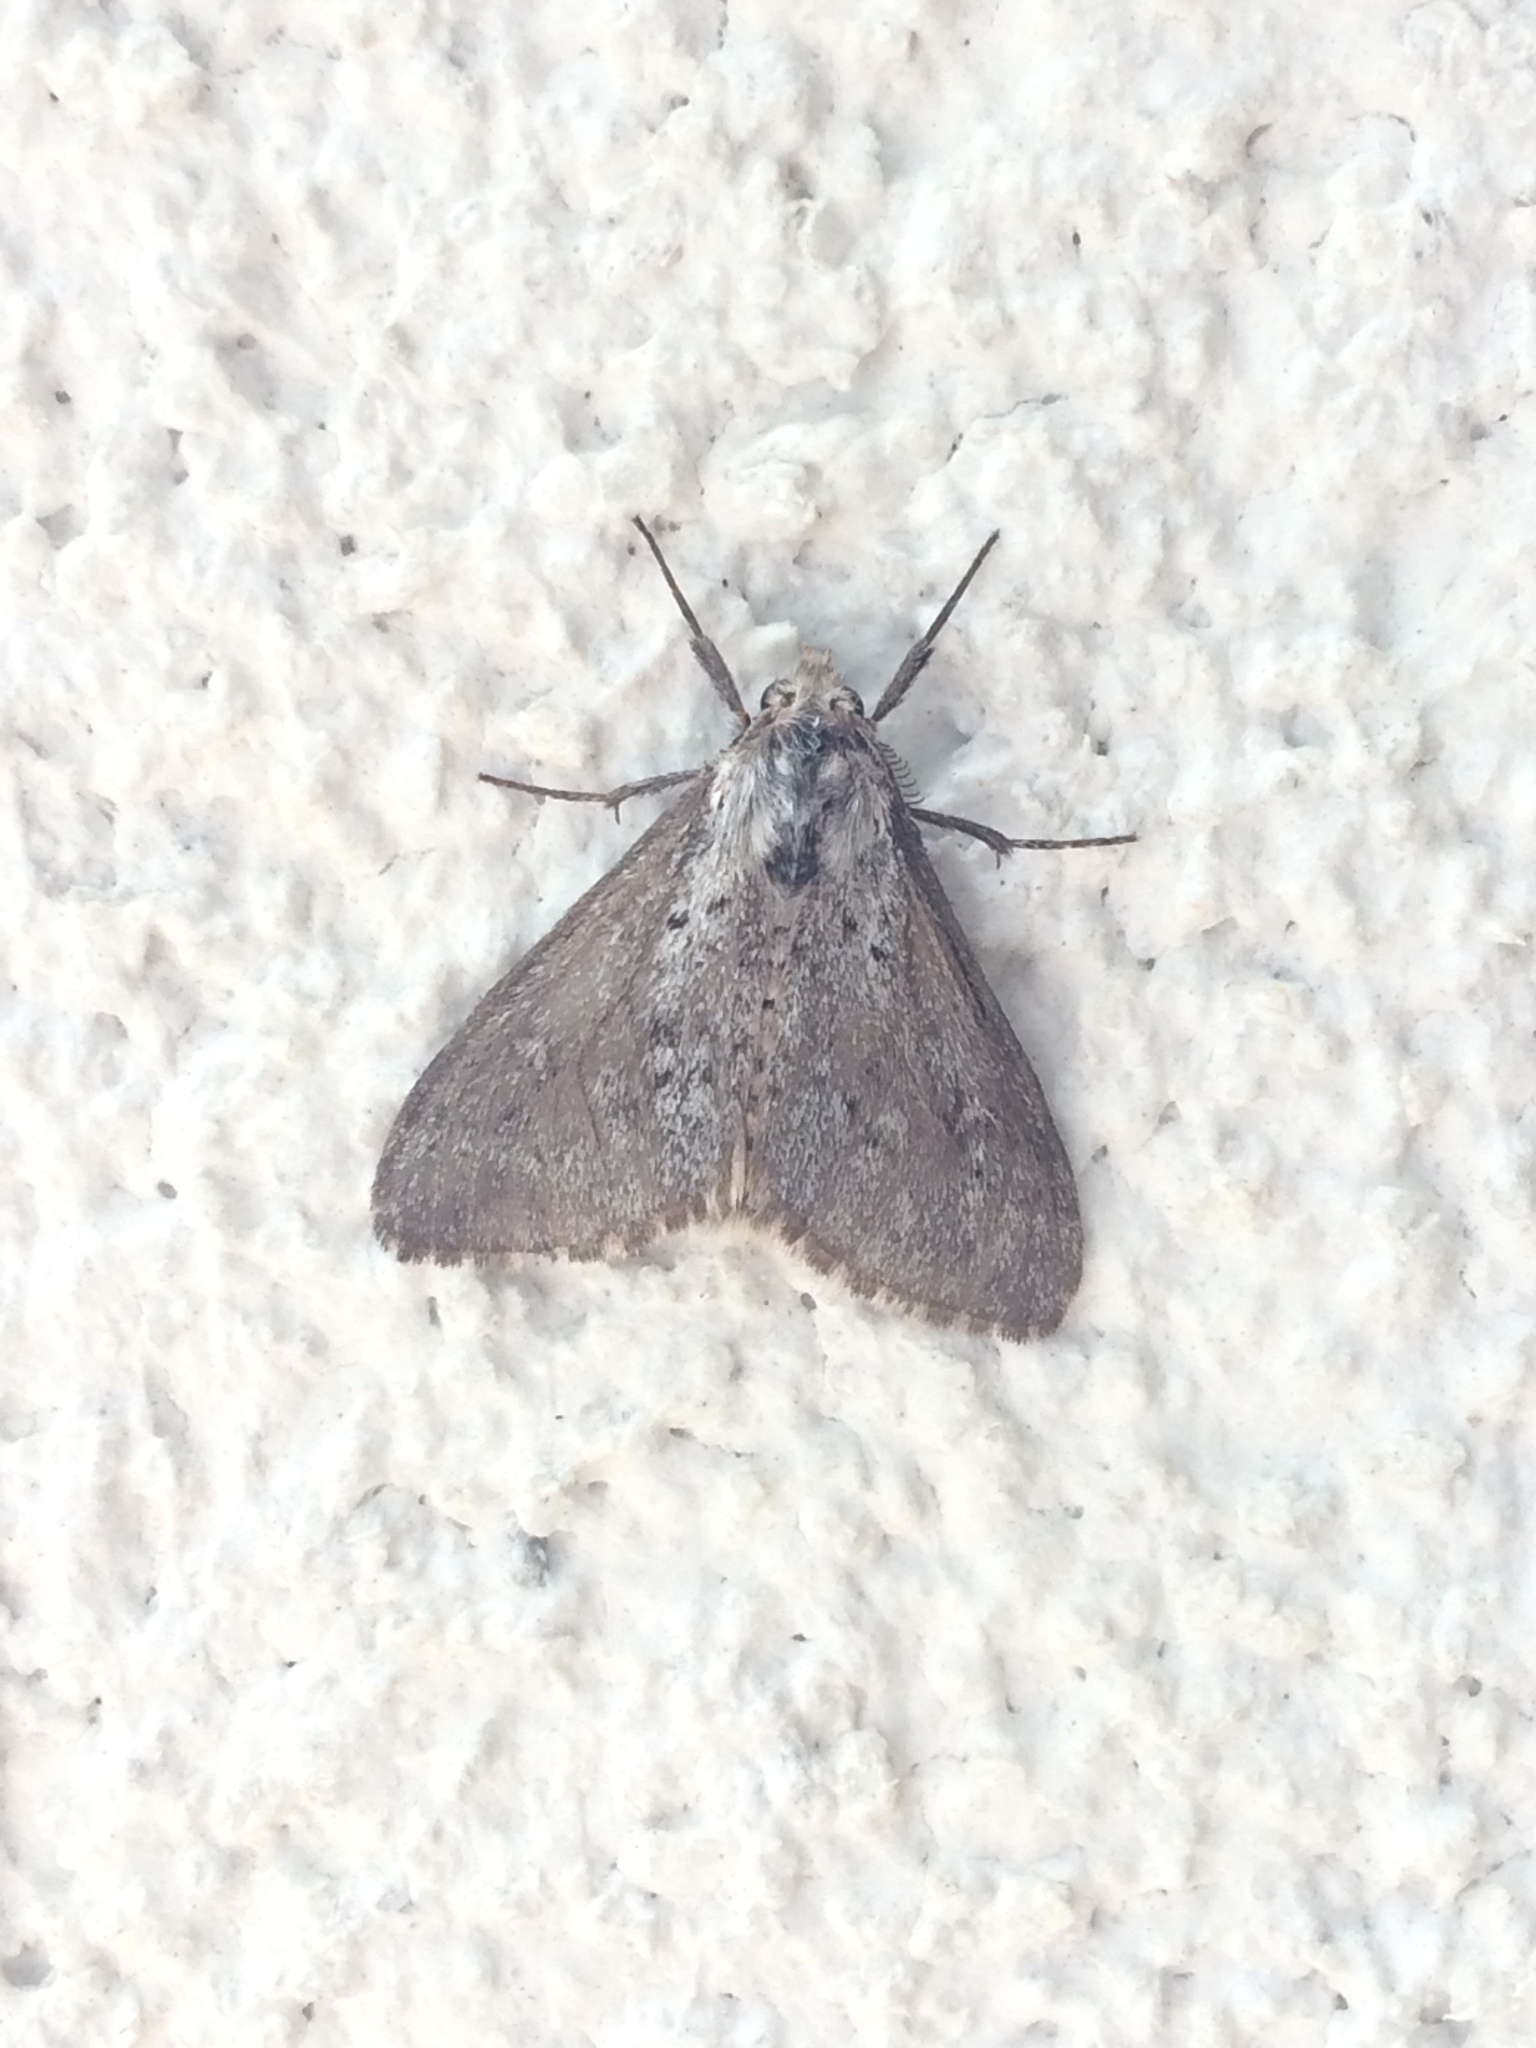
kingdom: Animalia
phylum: Arthropoda
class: Insecta
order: Lepidoptera
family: Erebidae
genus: Ocneria
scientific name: Ocneria
